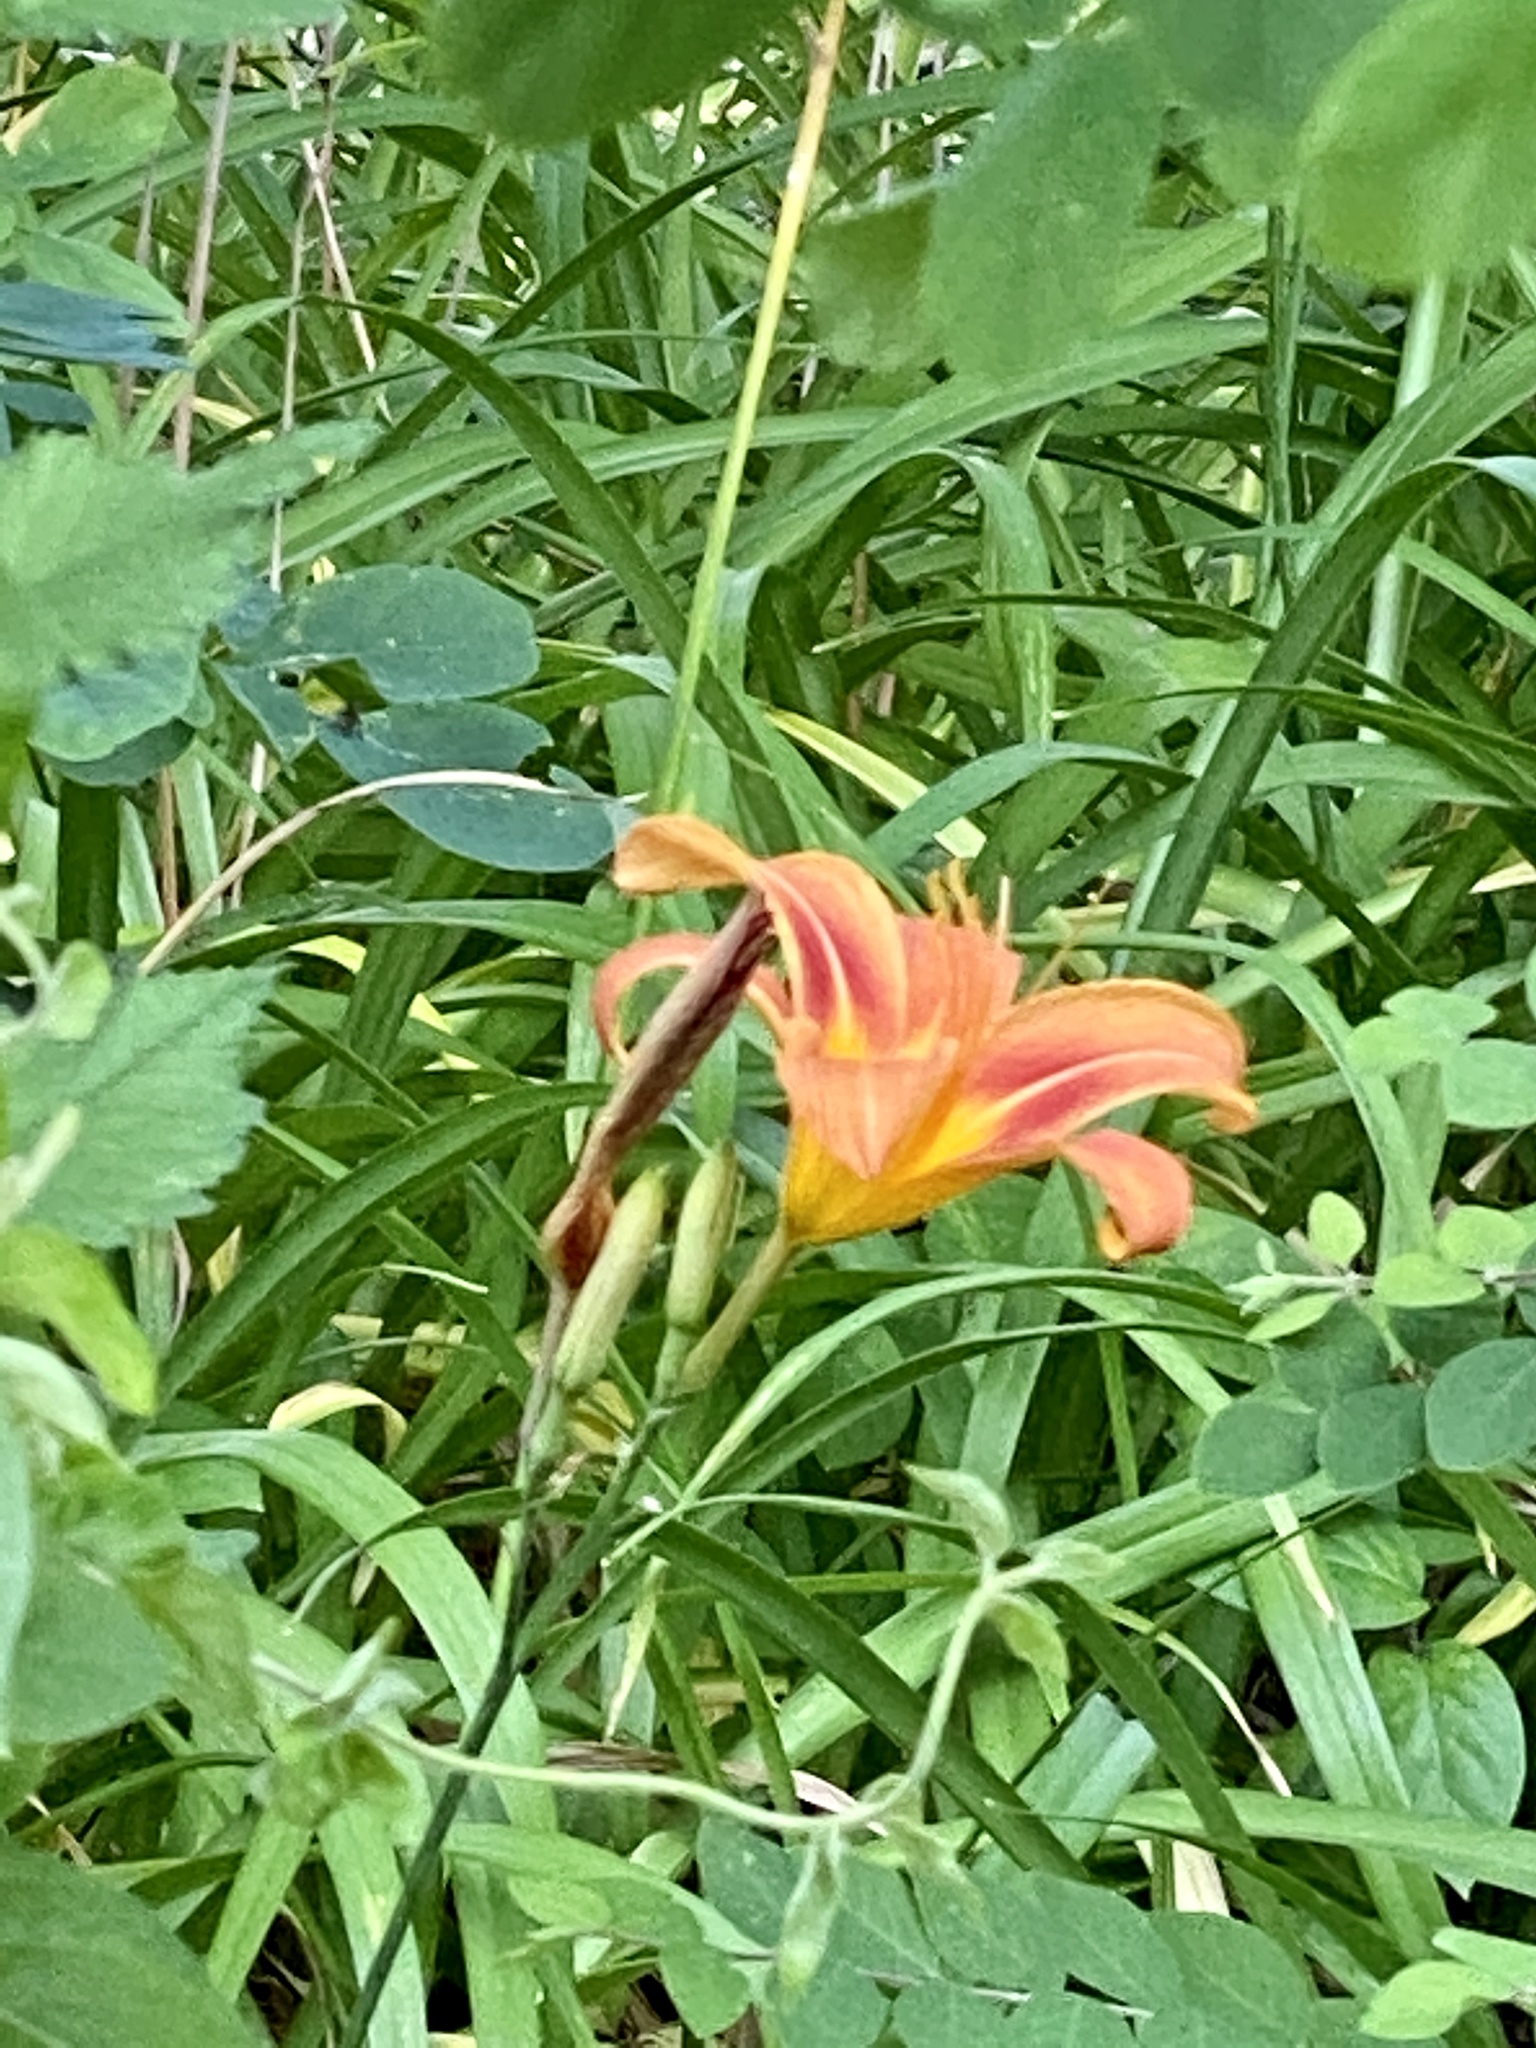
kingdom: Plantae
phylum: Tracheophyta
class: Liliopsida
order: Asparagales
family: Asphodelaceae
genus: Hemerocallis
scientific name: Hemerocallis fulva
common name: Orange day-lily
